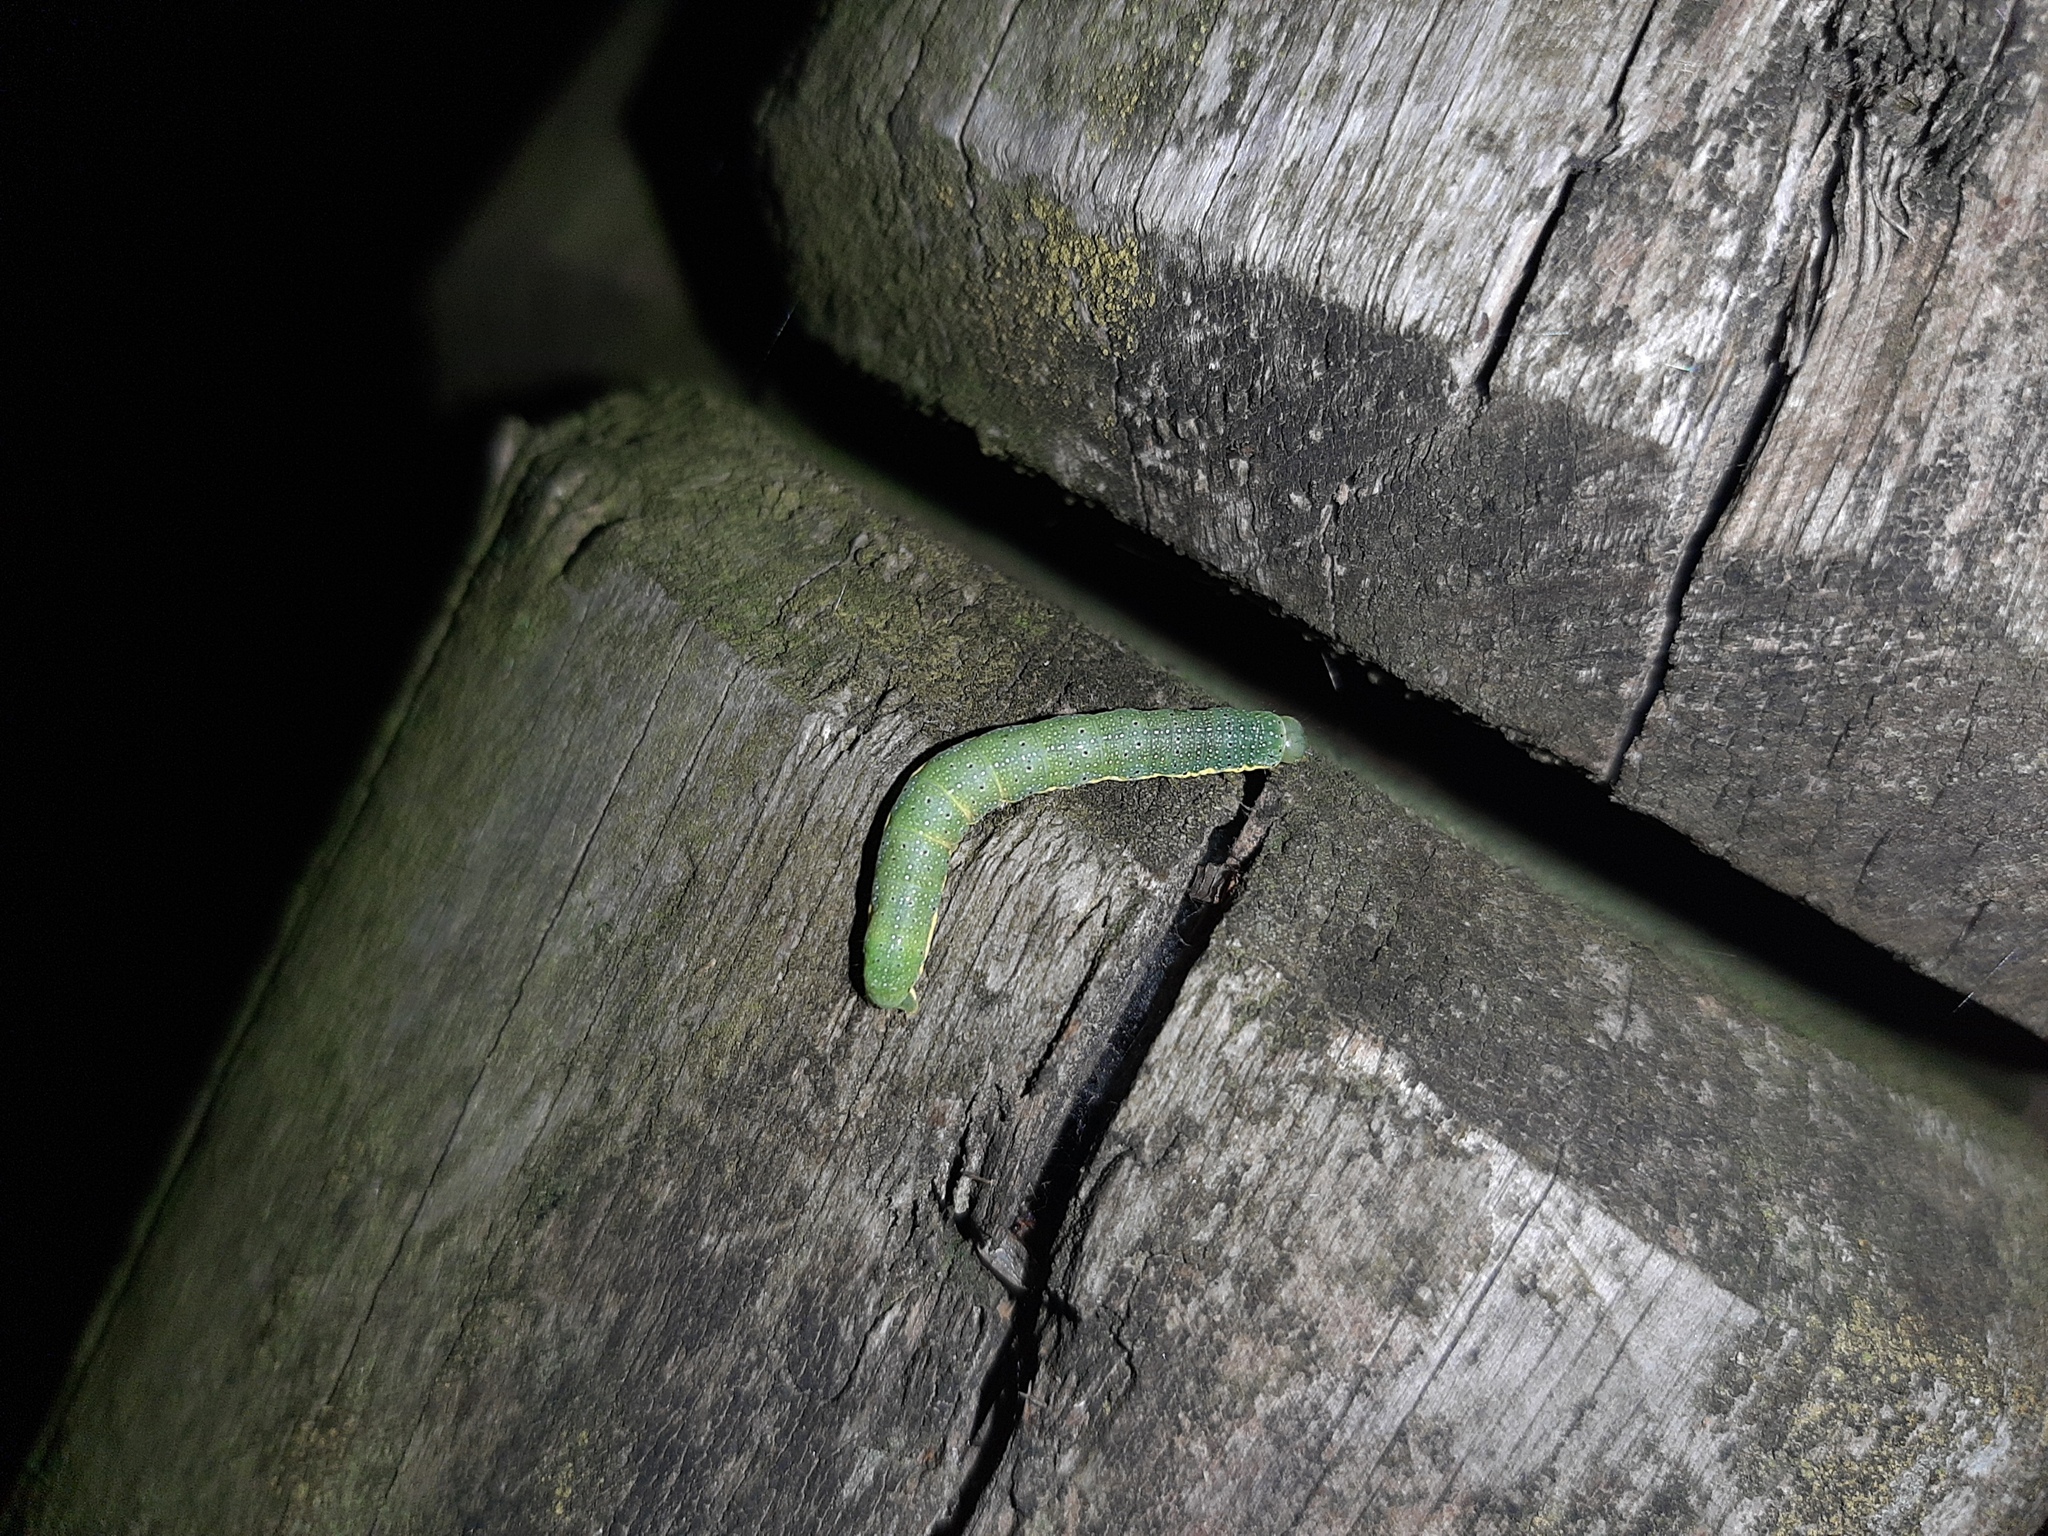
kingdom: Animalia
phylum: Arthropoda
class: Insecta
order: Lepidoptera
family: Noctuidae
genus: Lacanobia
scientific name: Lacanobia oleracea
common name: Bright-line brown-eye
